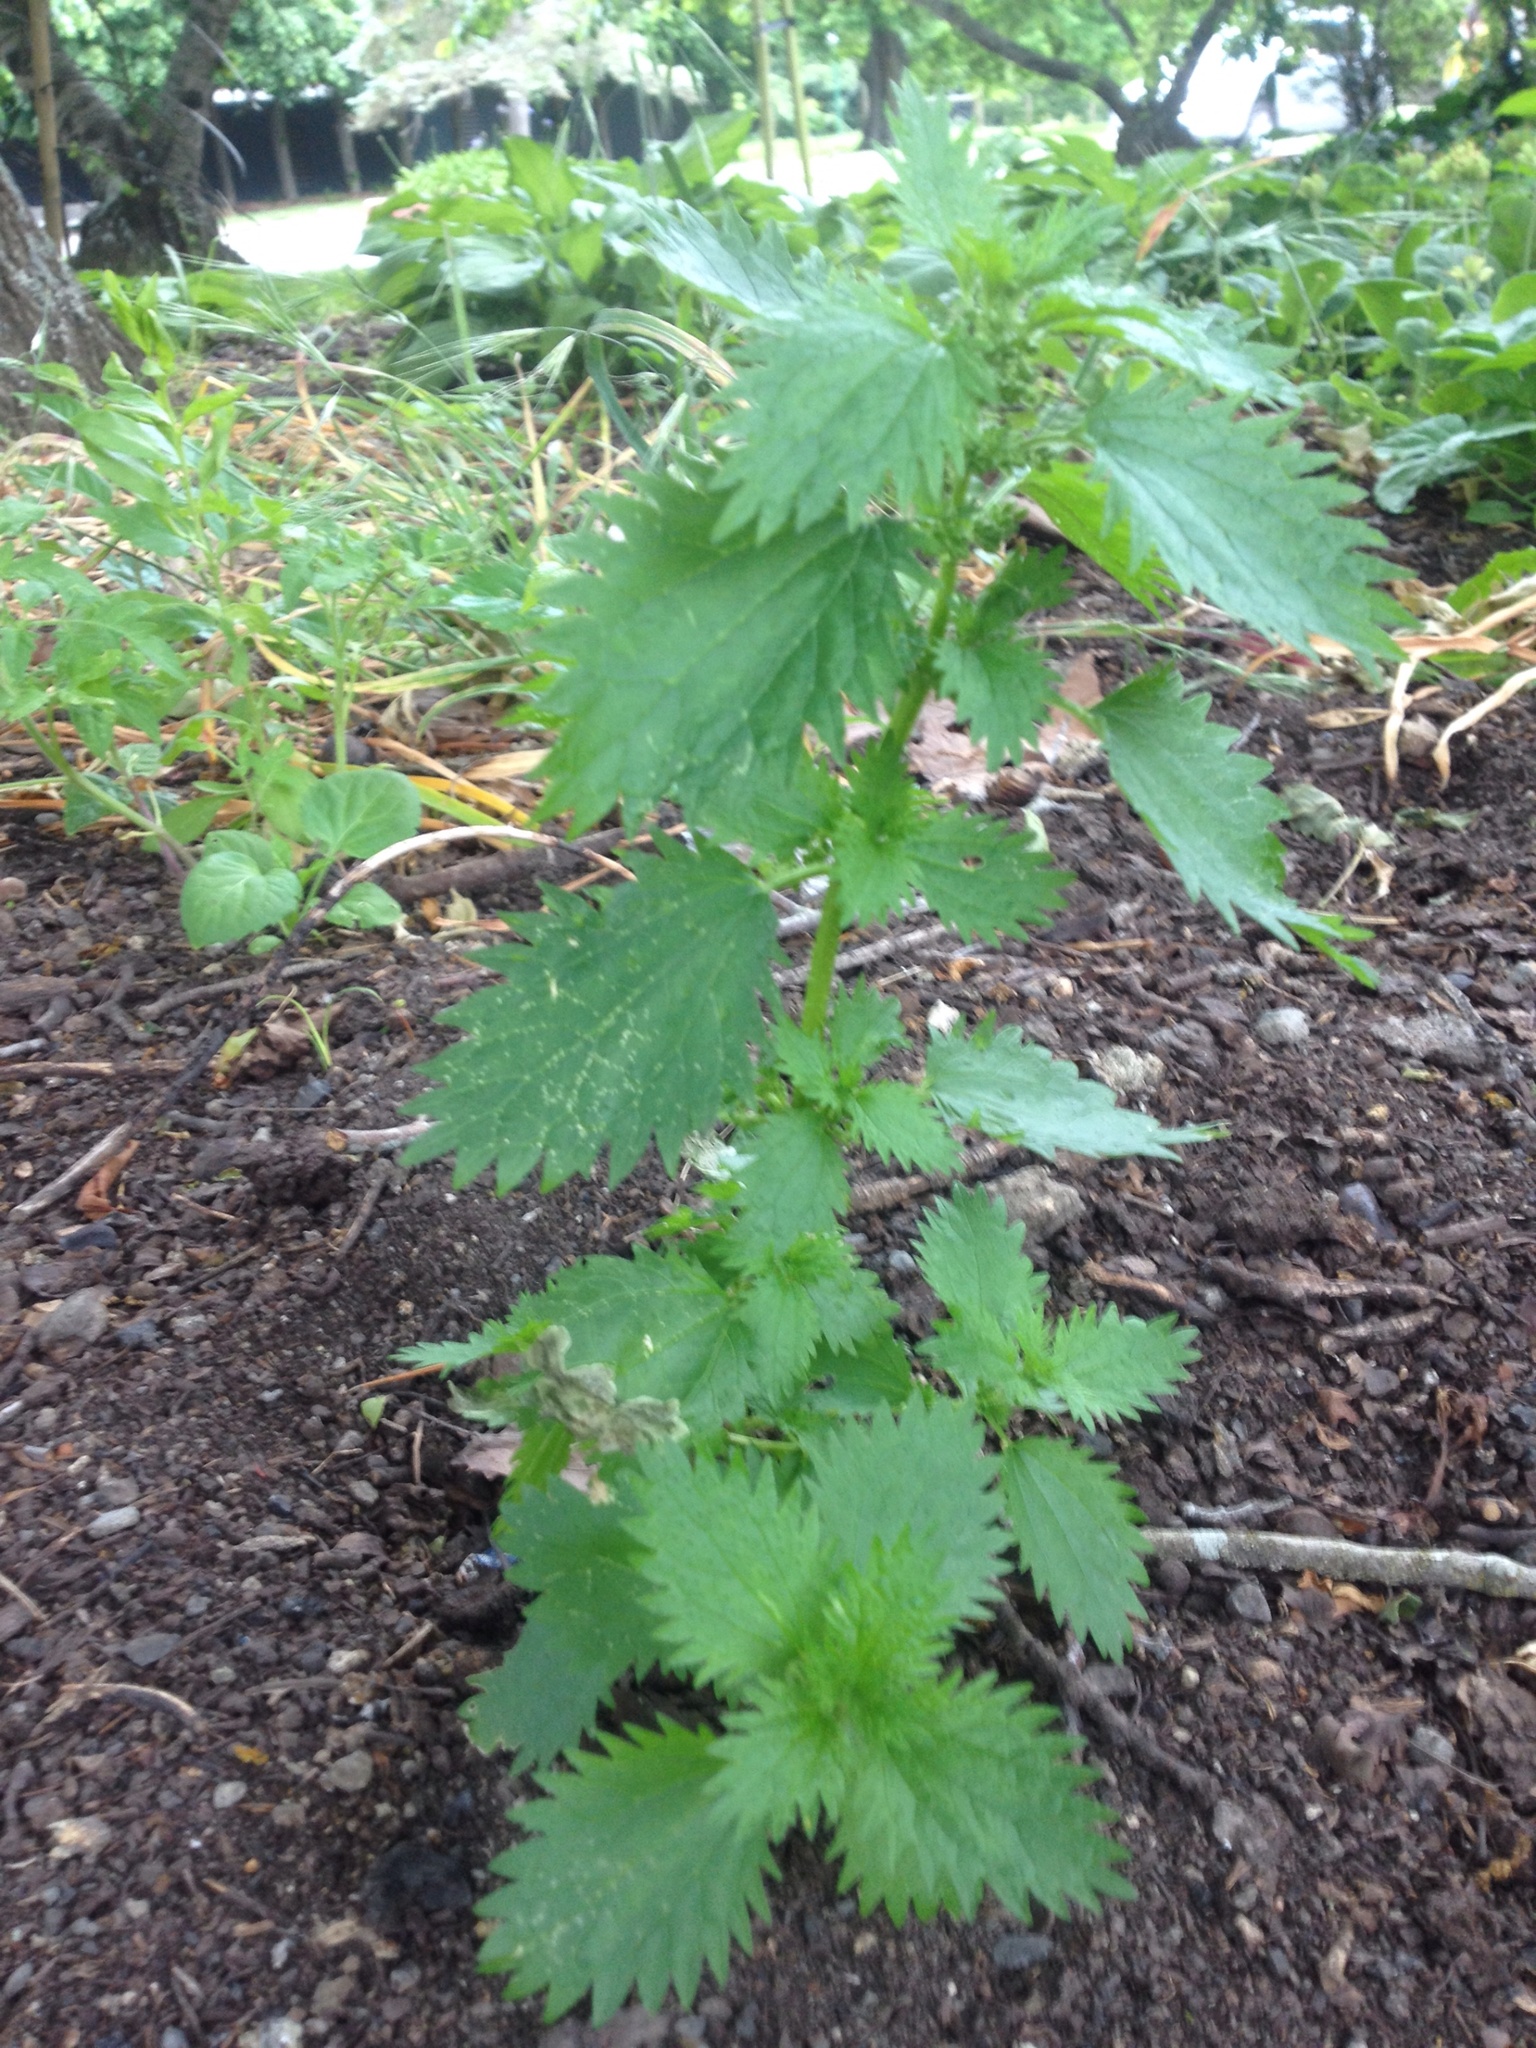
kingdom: Plantae
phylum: Tracheophyta
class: Magnoliopsida
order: Rosales
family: Urticaceae
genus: Urtica
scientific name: Urtica urens
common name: Dwarf nettle
